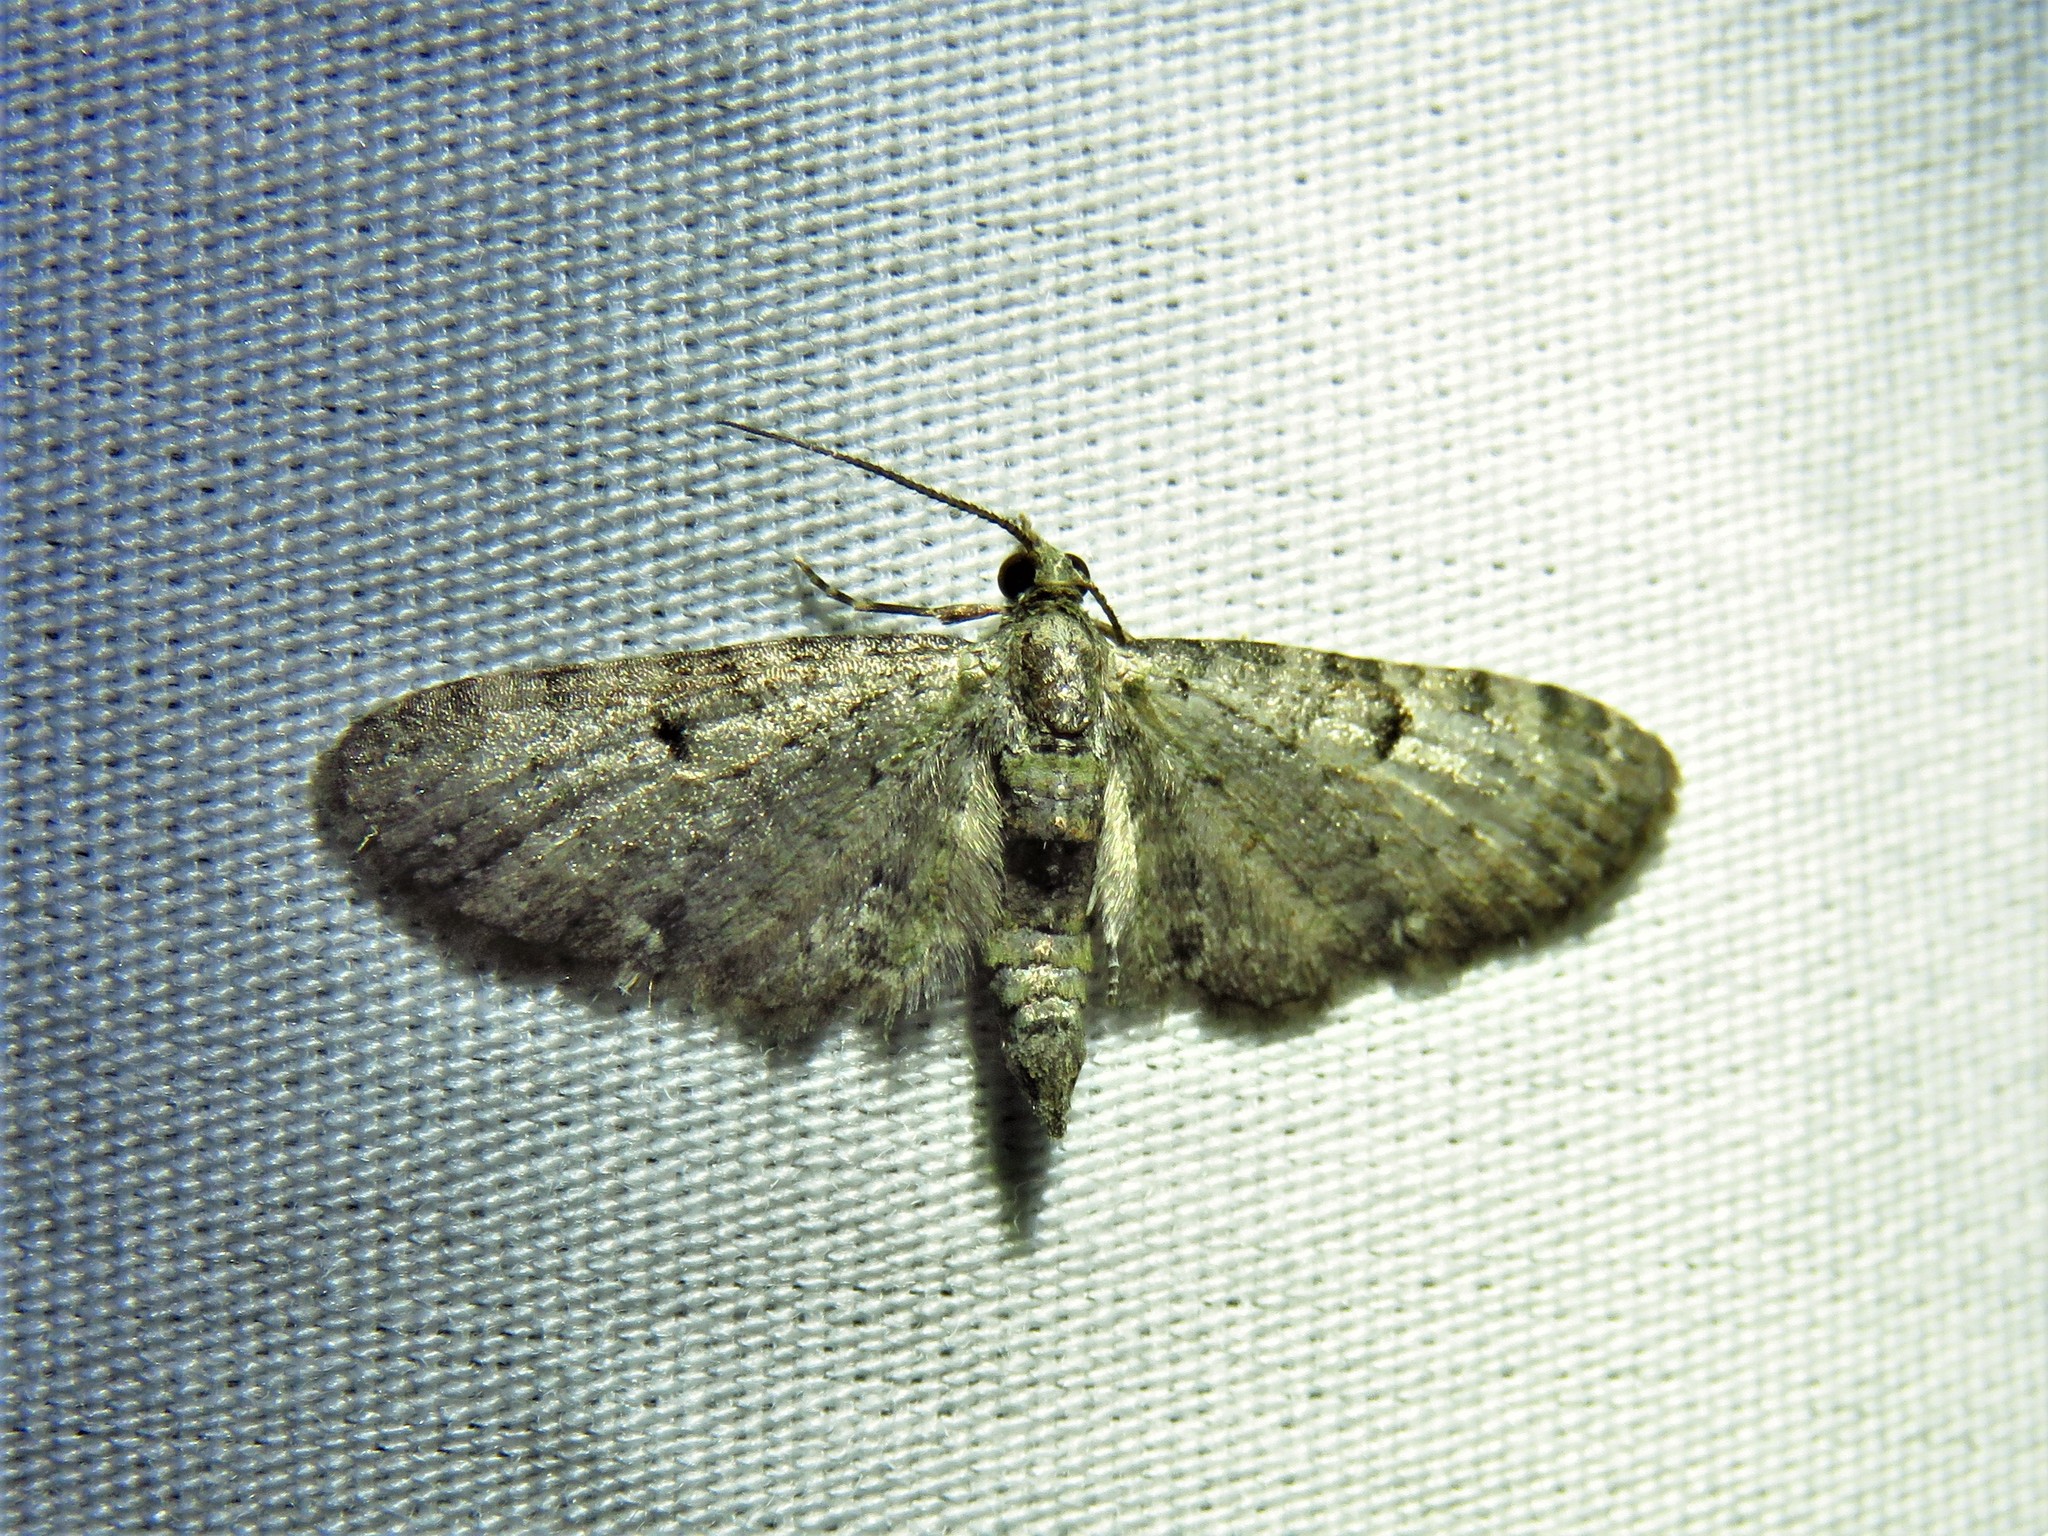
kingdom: Animalia
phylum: Arthropoda
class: Insecta
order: Lepidoptera
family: Geometridae
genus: Eupithecia
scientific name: Eupithecia miserulata
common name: Common eupithecia
